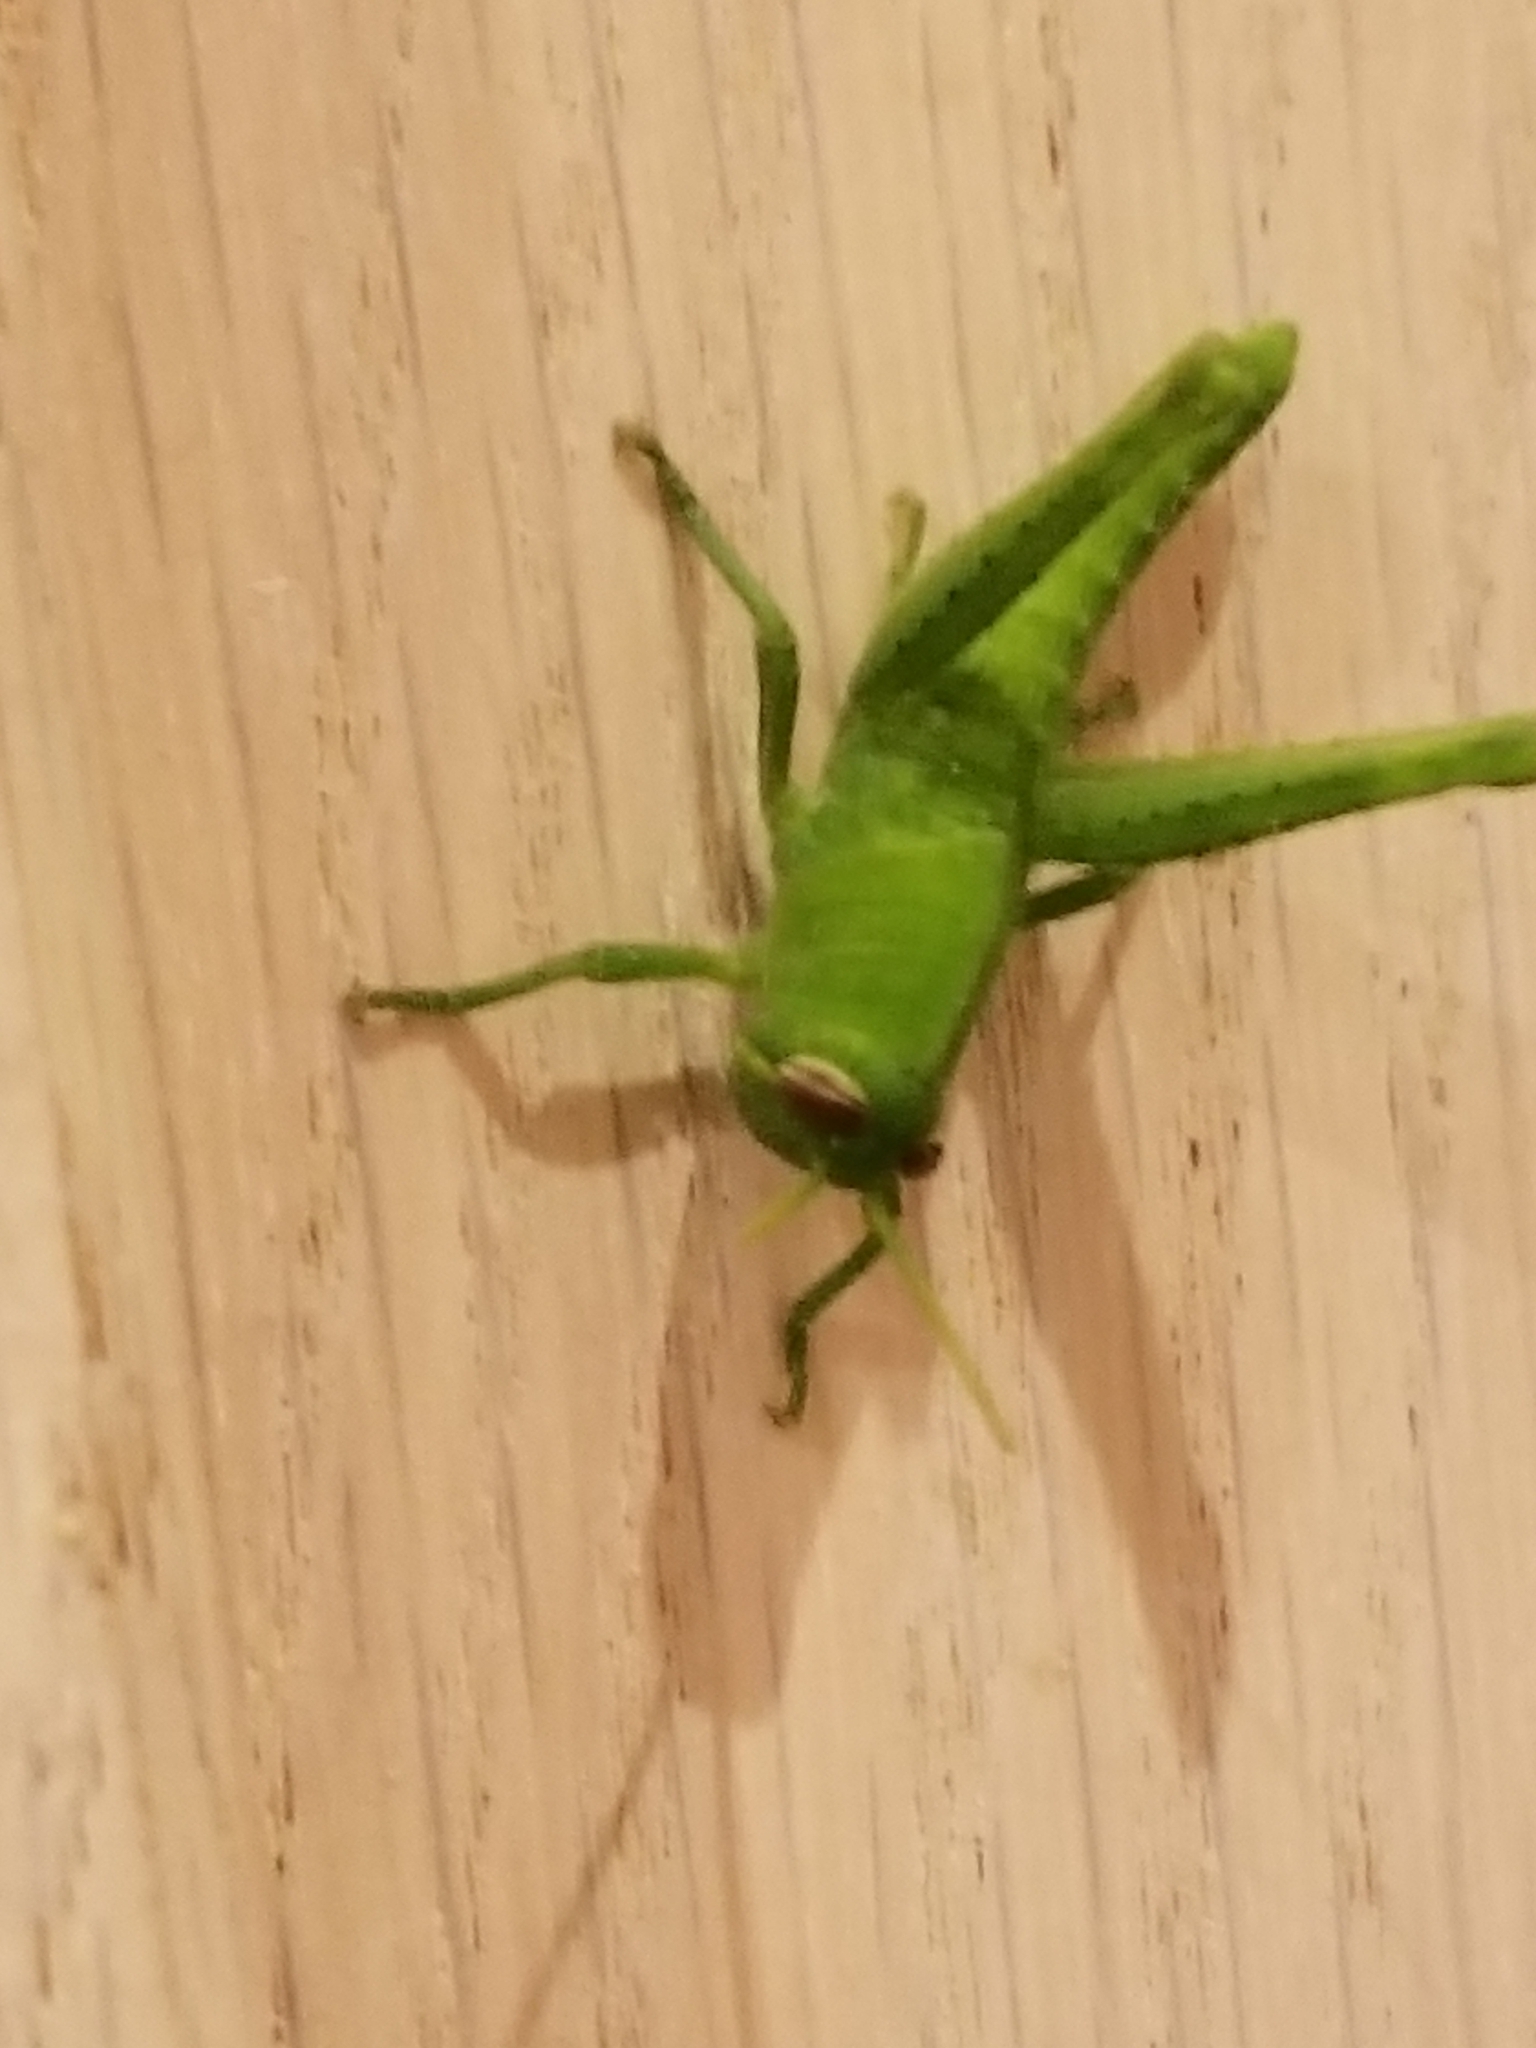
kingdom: Animalia
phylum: Arthropoda
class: Insecta
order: Orthoptera
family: Acrididae
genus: Schistocerca
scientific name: Schistocerca nitens
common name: Vagrant grasshopper
